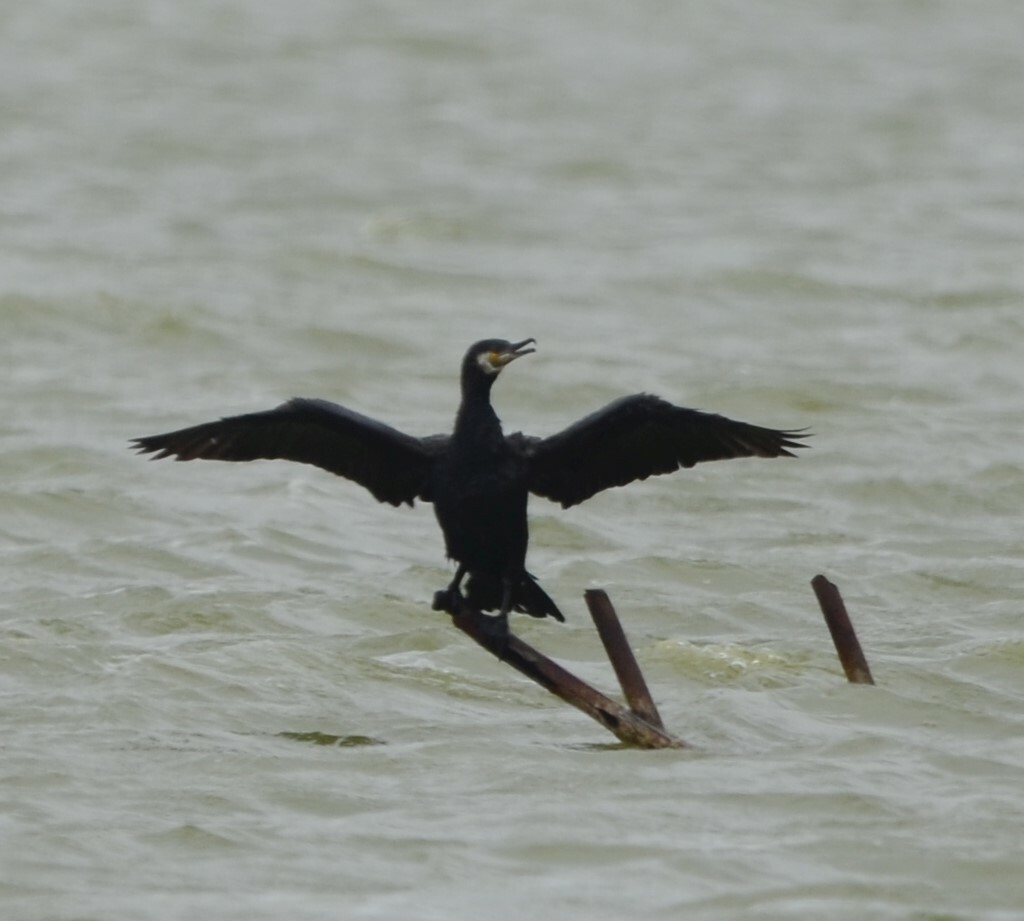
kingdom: Animalia
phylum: Chordata
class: Aves
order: Suliformes
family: Phalacrocoracidae
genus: Phalacrocorax
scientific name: Phalacrocorax carbo
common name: Great cormorant
